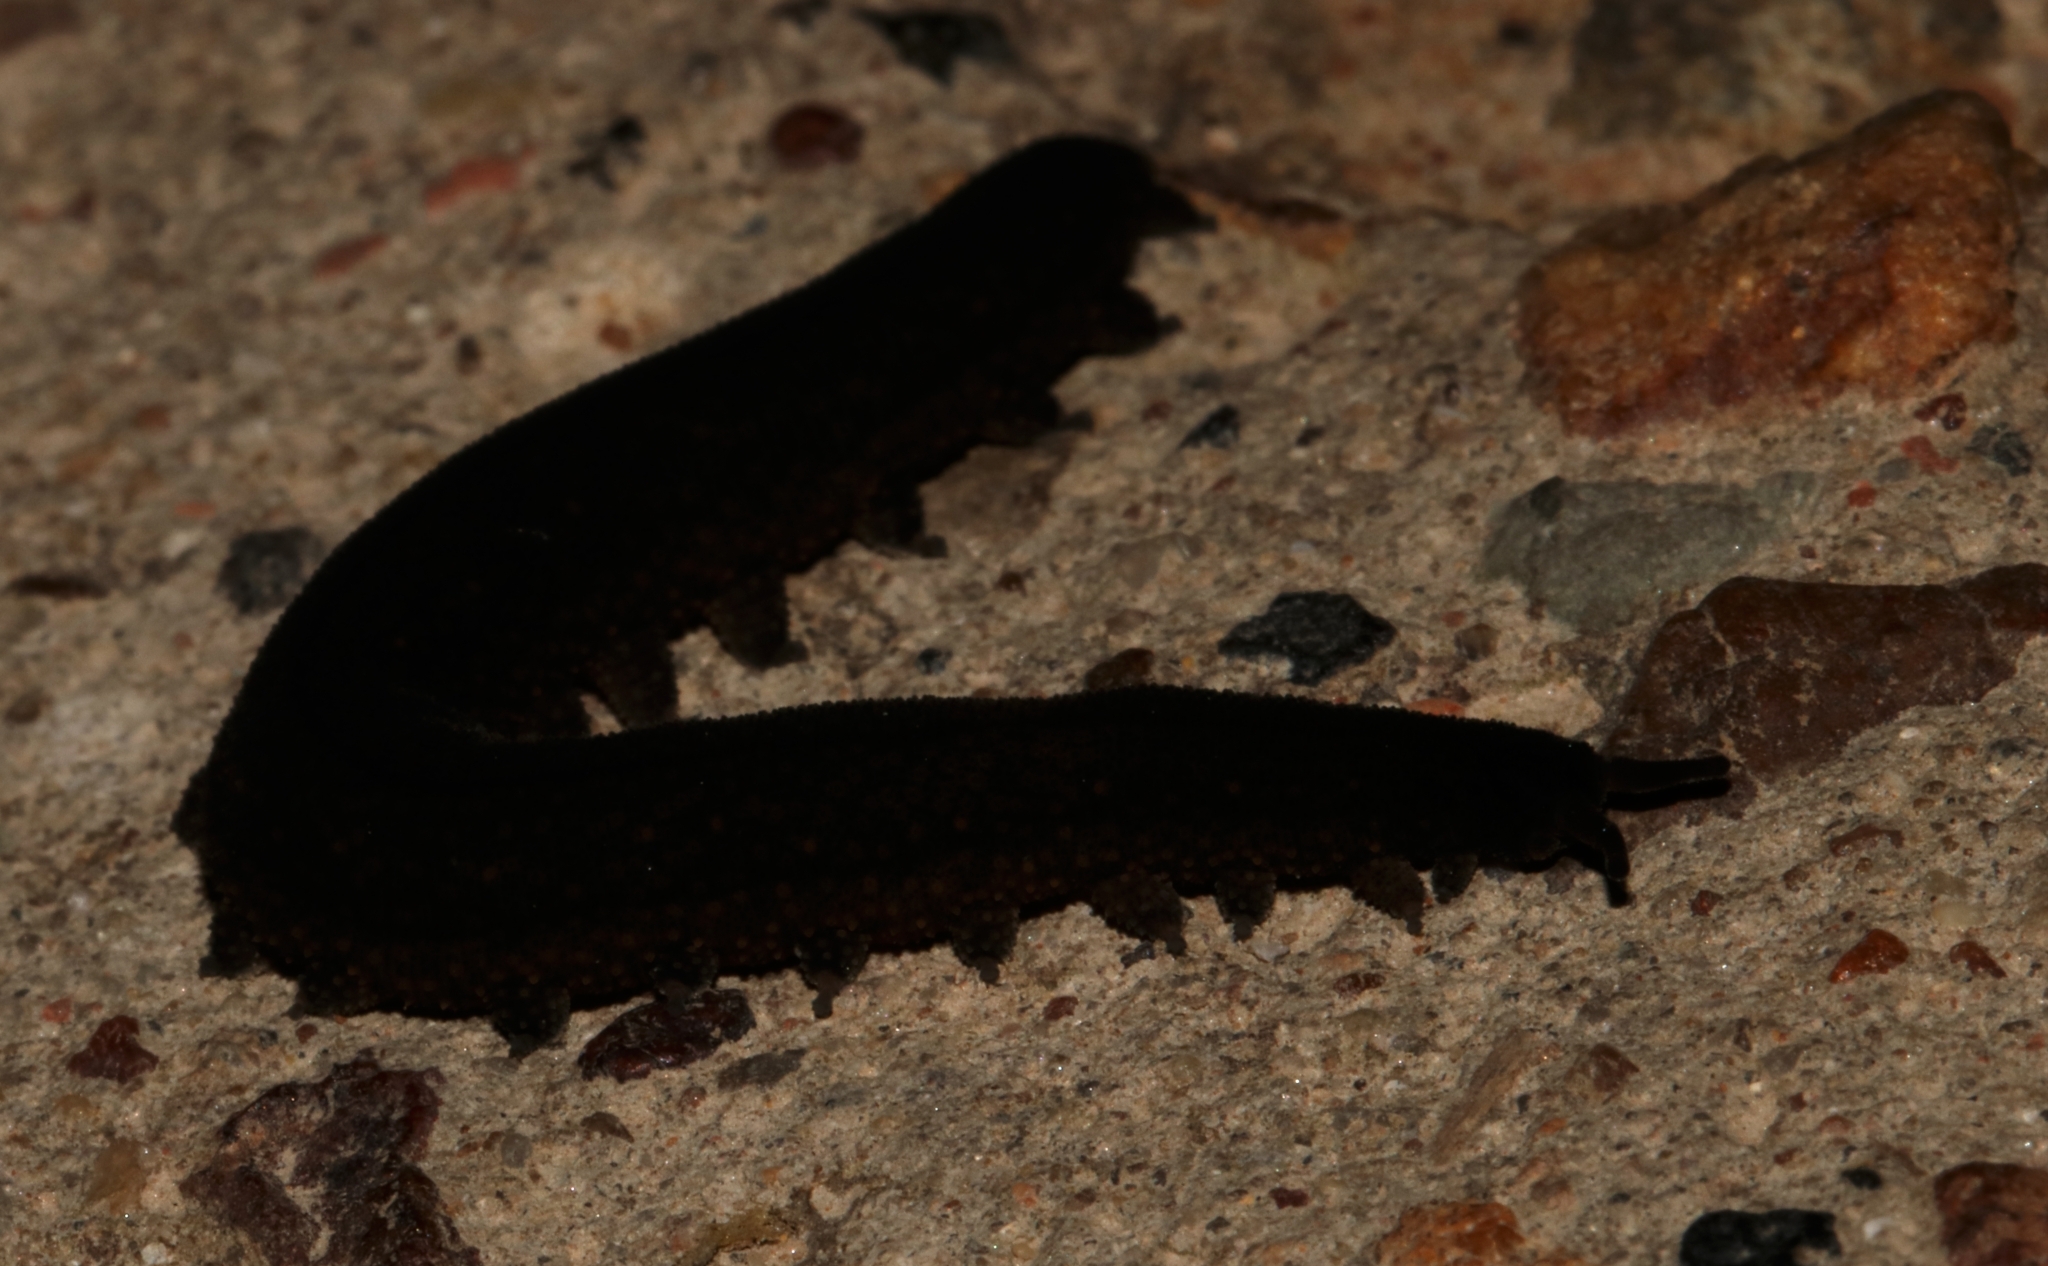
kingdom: Animalia
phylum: Onychophora
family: Peripatopsidae
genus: Peripatopsis
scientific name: Peripatopsis overbergiensis
